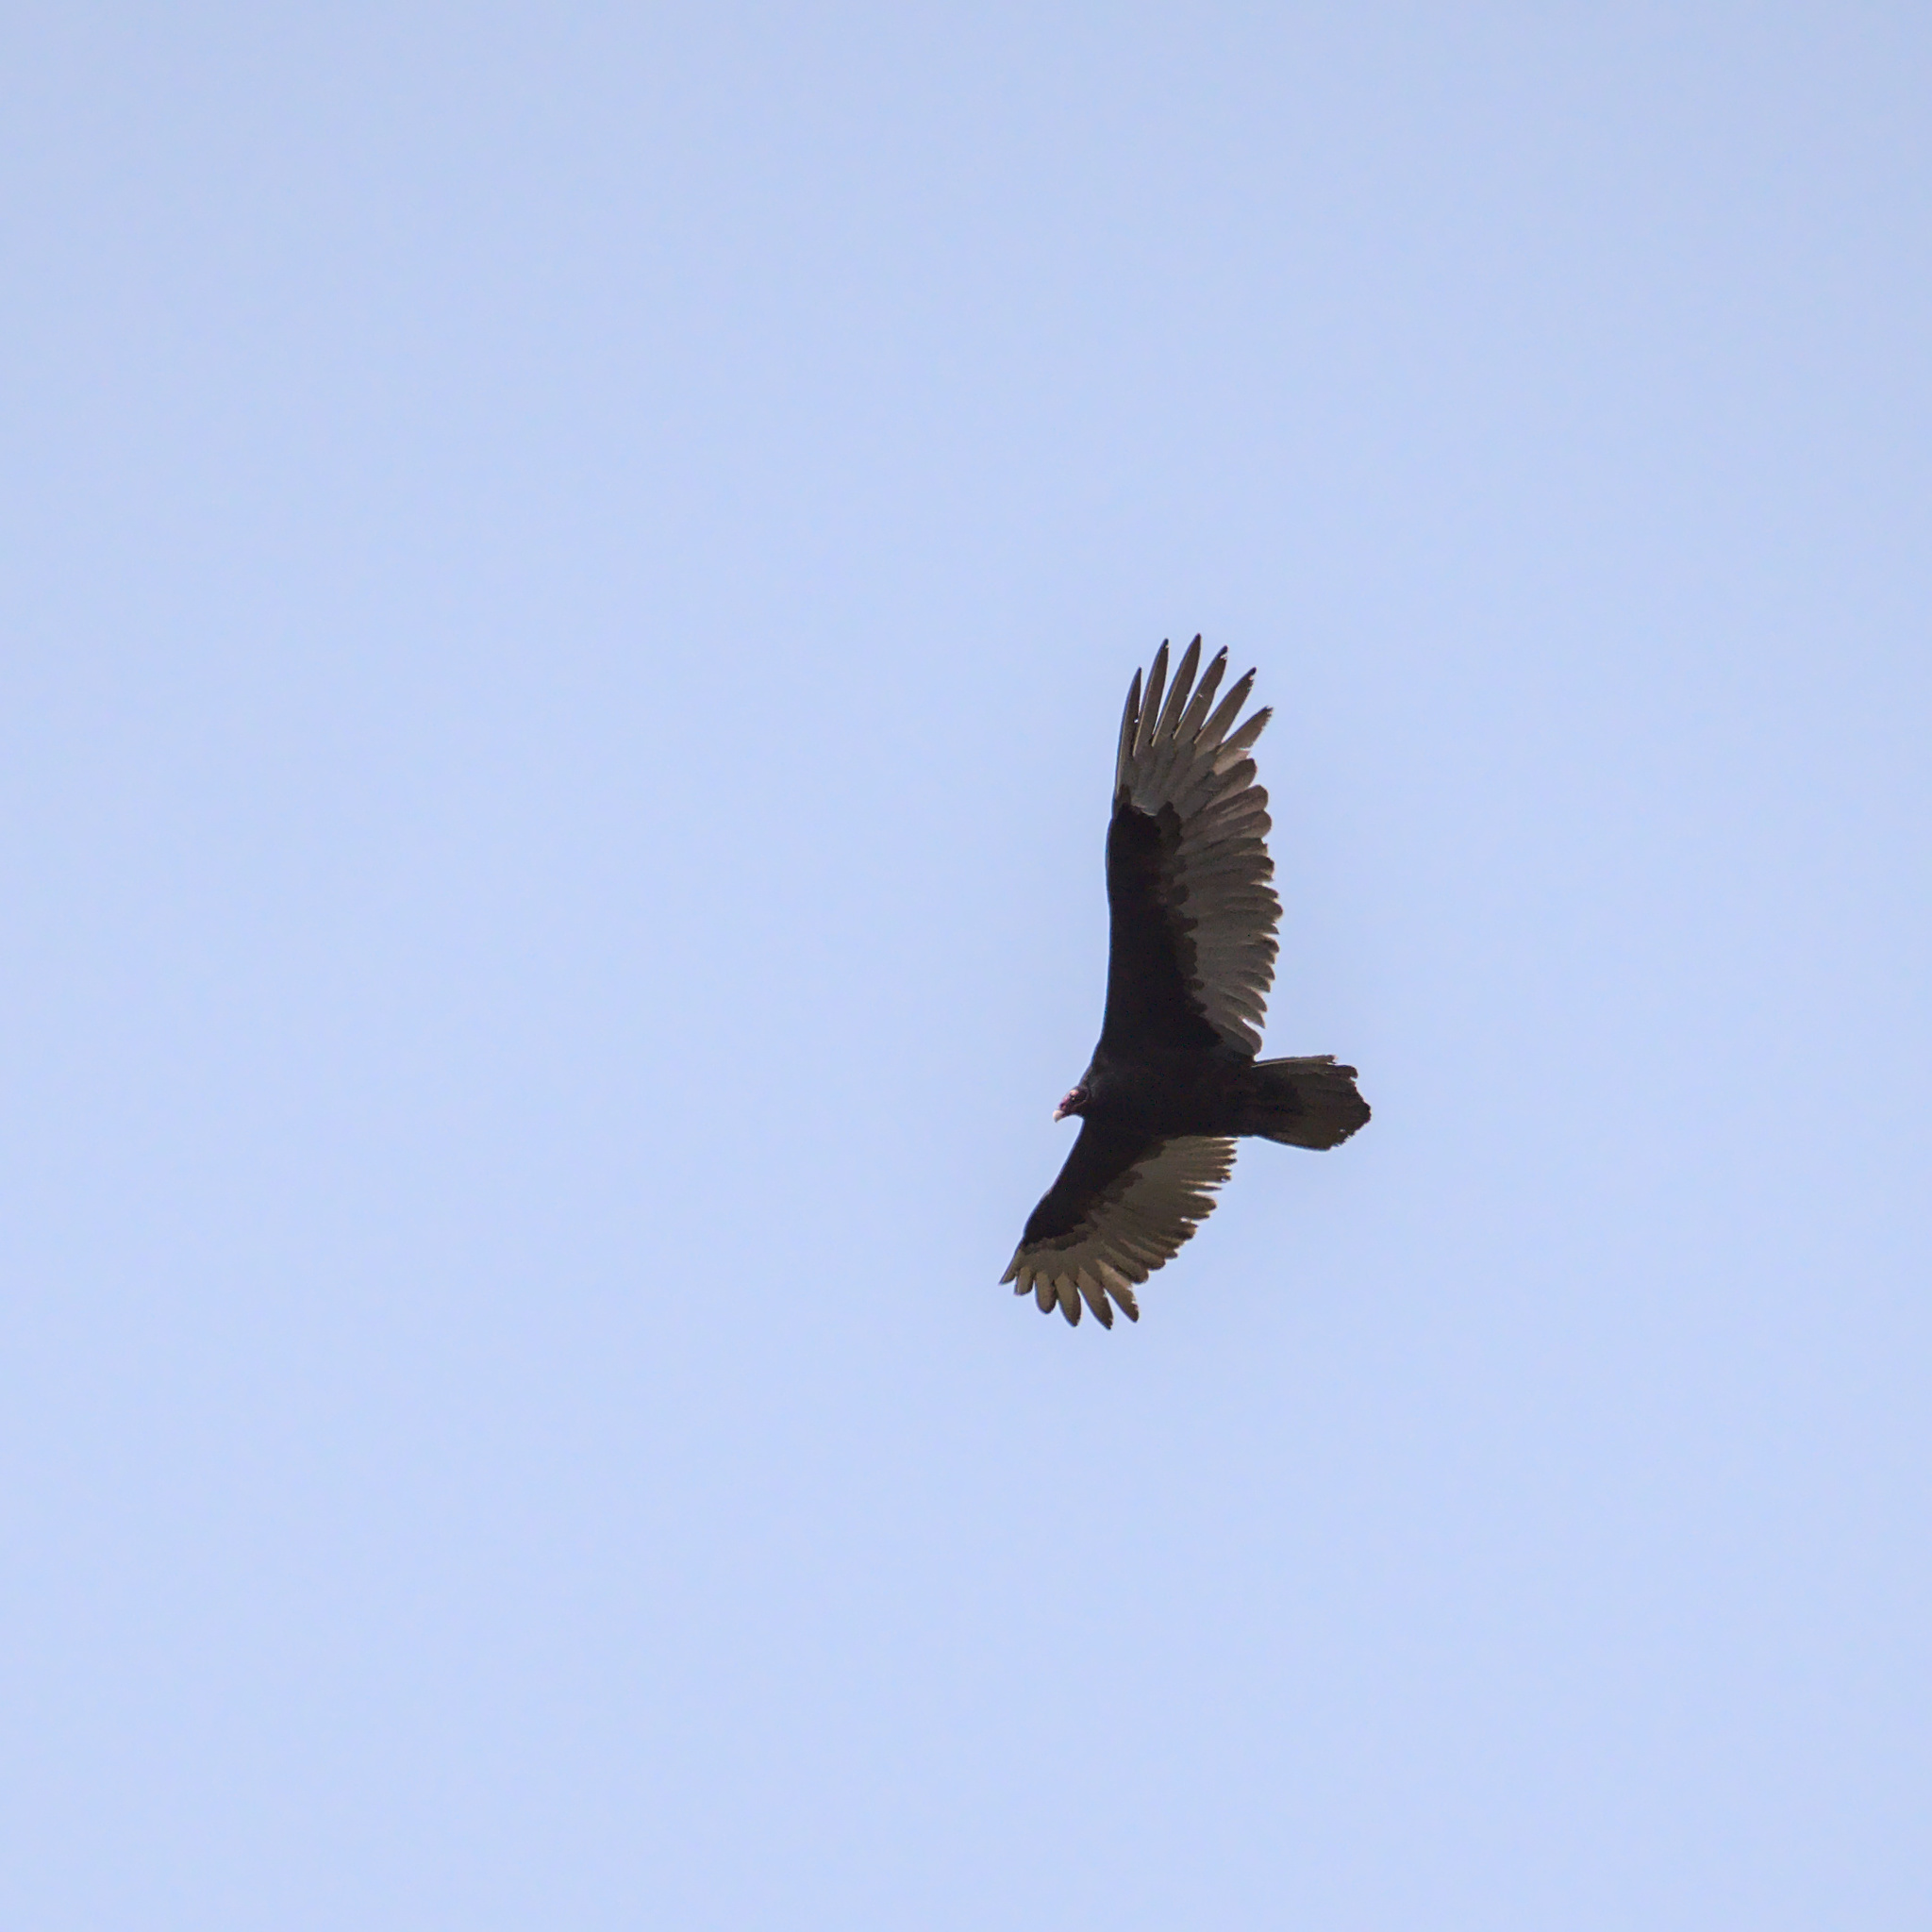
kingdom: Animalia
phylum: Chordata
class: Aves
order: Accipitriformes
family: Cathartidae
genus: Cathartes
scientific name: Cathartes aura
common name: Turkey vulture
